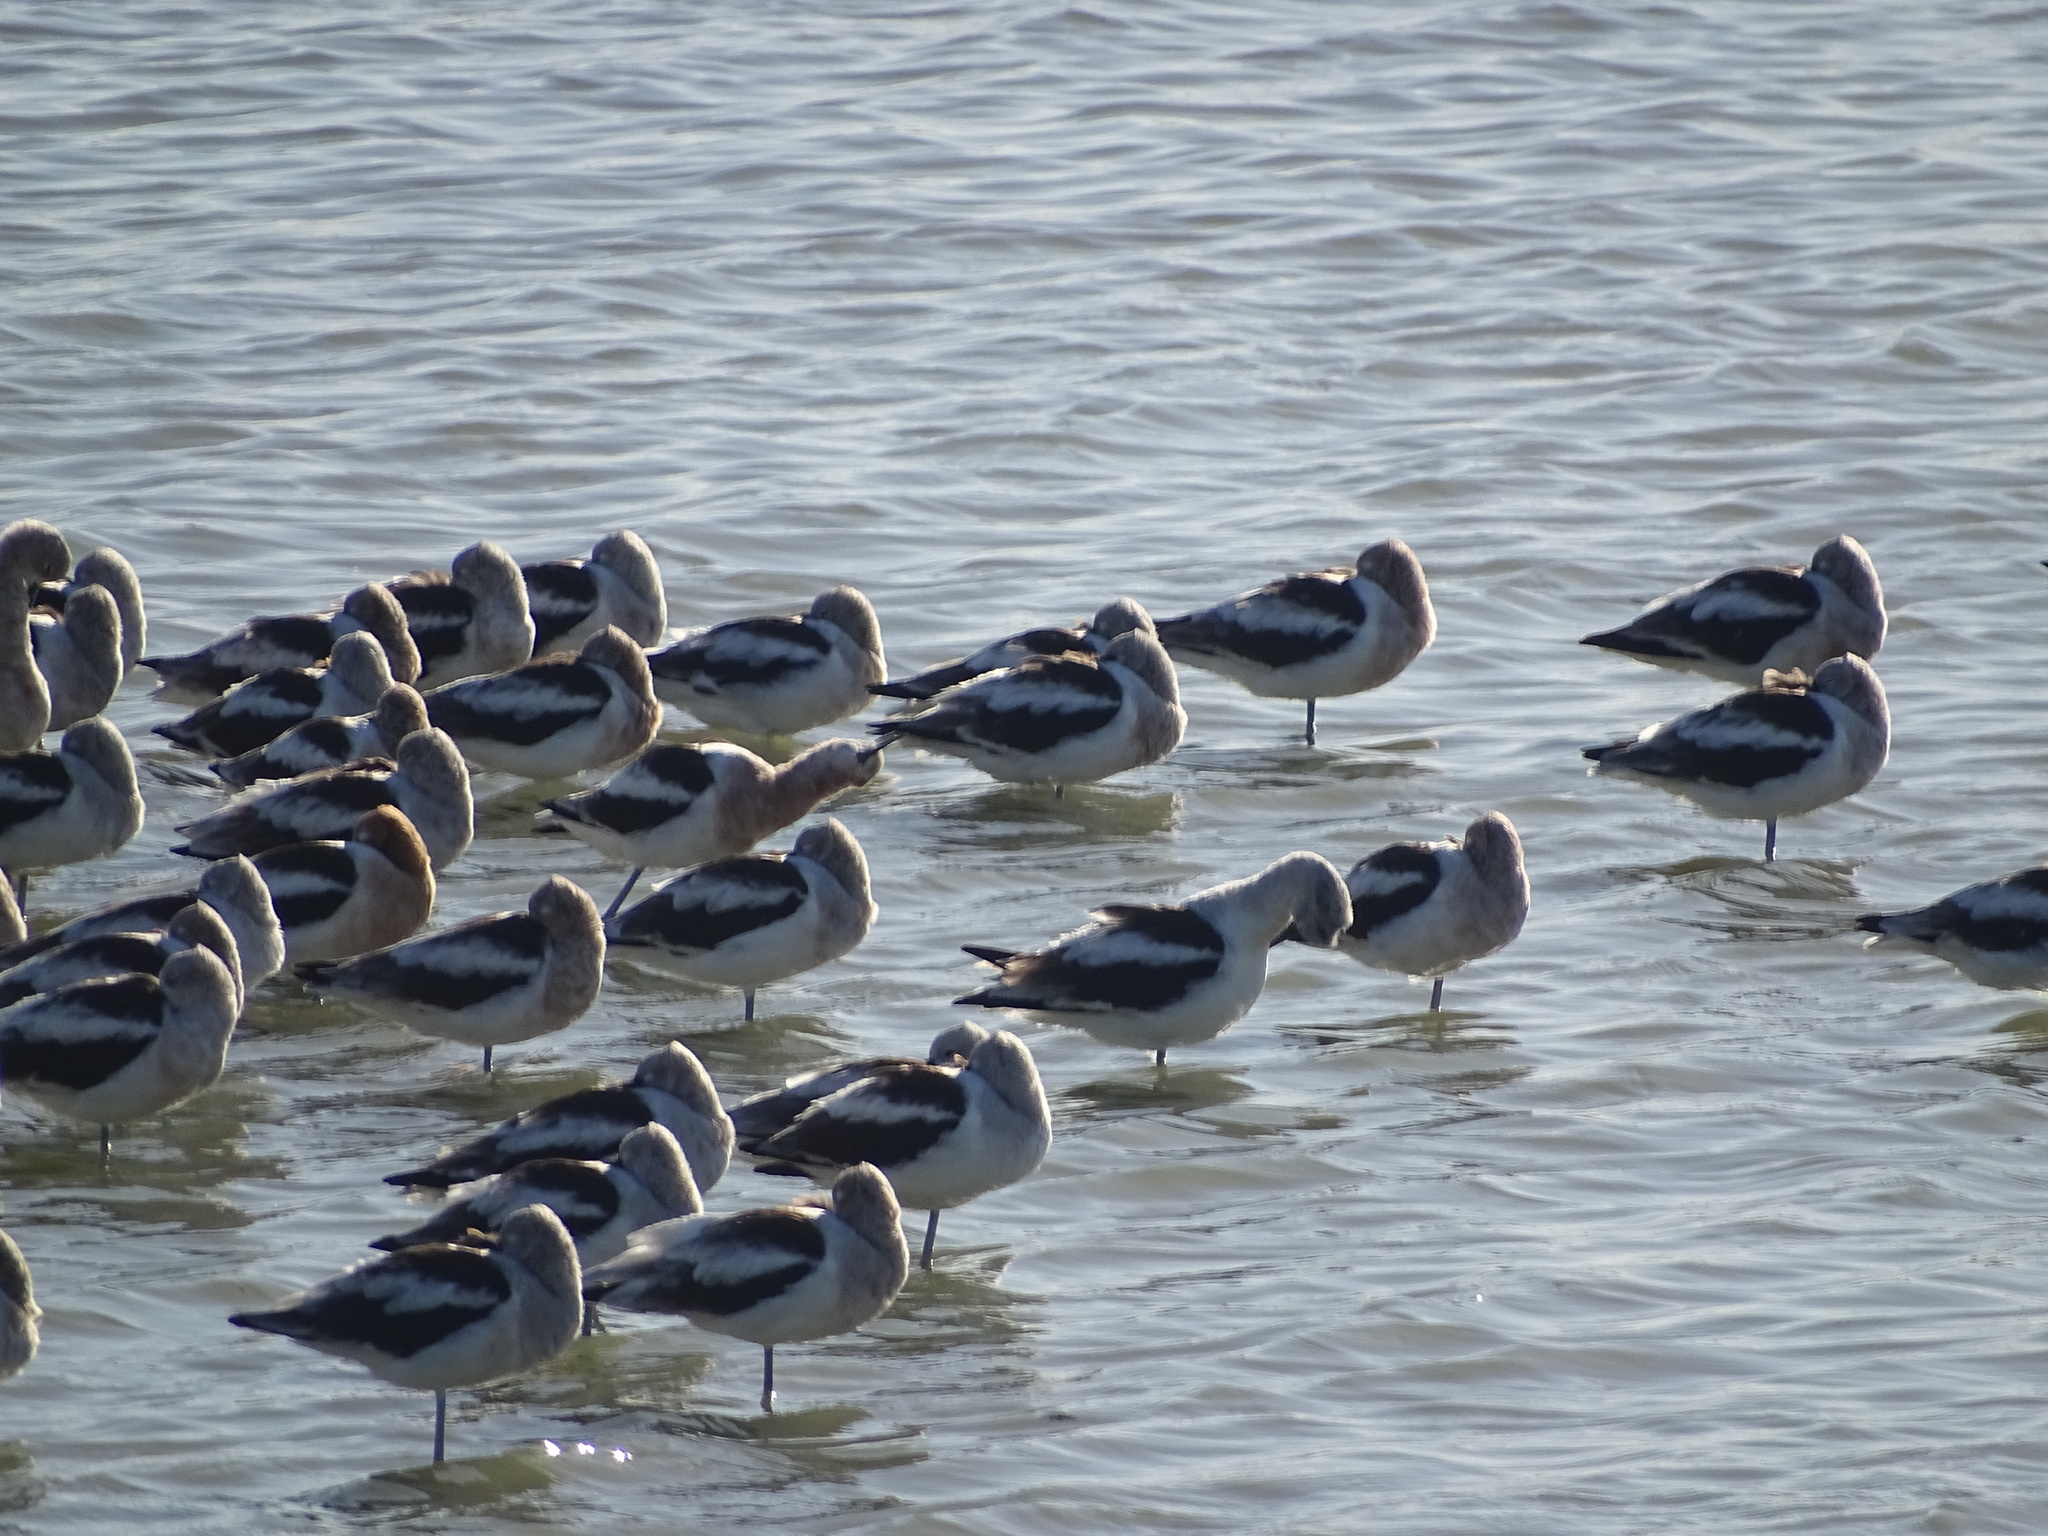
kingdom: Animalia
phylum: Chordata
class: Aves
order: Charadriiformes
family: Recurvirostridae
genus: Recurvirostra
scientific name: Recurvirostra americana
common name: American avocet
